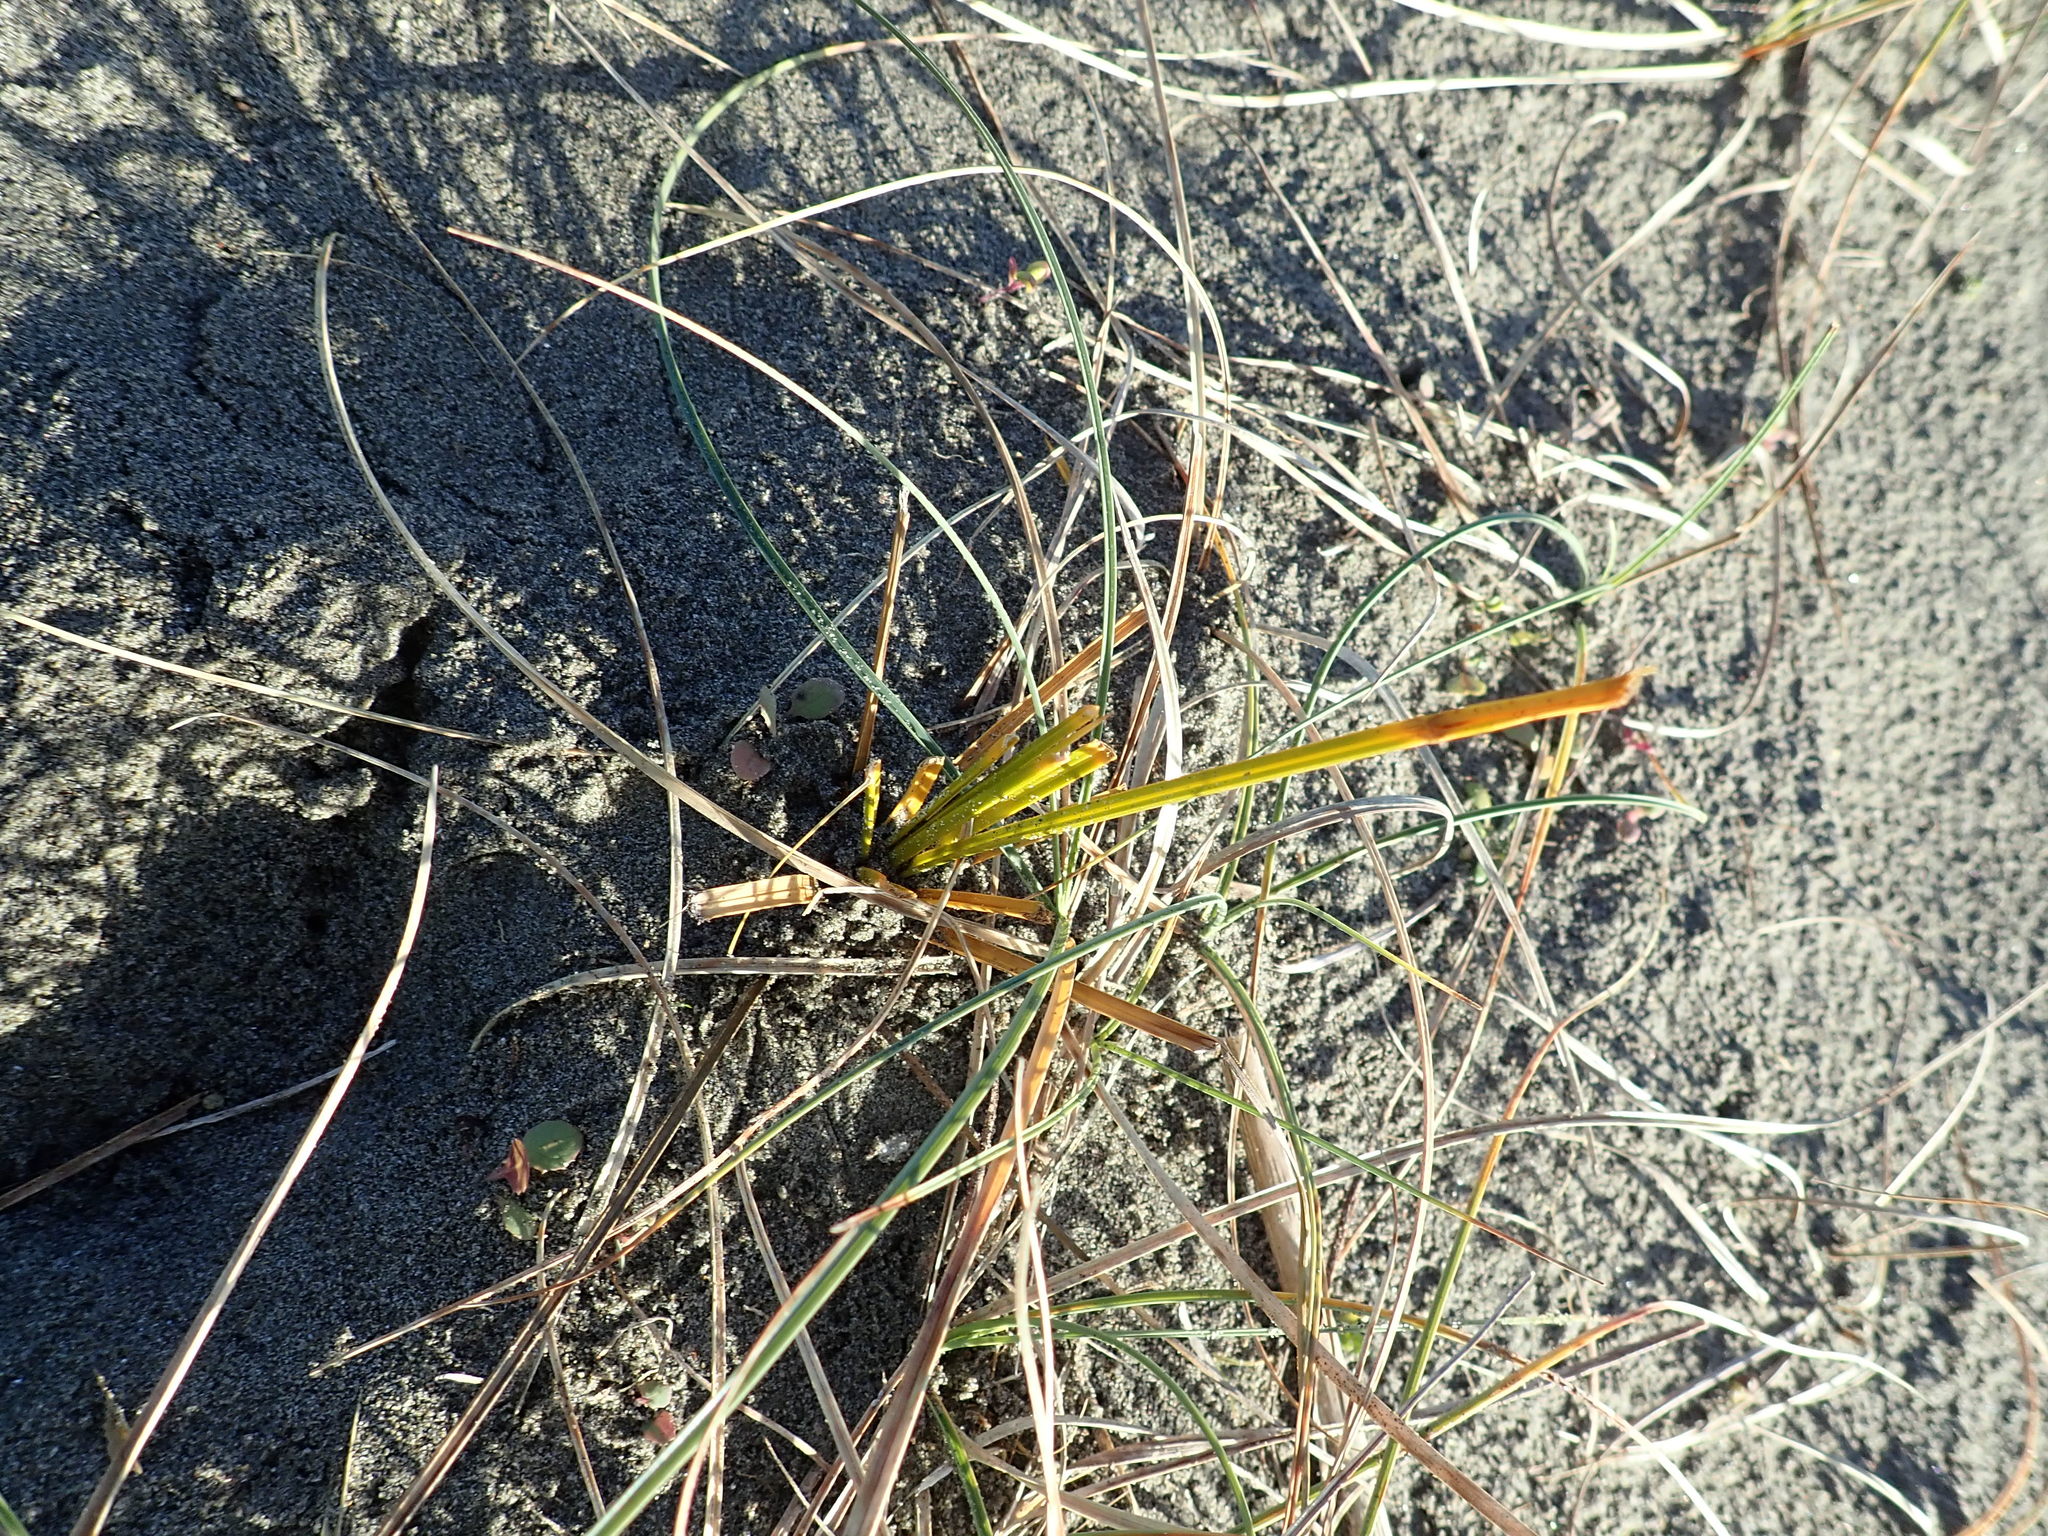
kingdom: Plantae
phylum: Tracheophyta
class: Liliopsida
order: Poales
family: Cyperaceae
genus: Ficinia
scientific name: Ficinia spiralis
